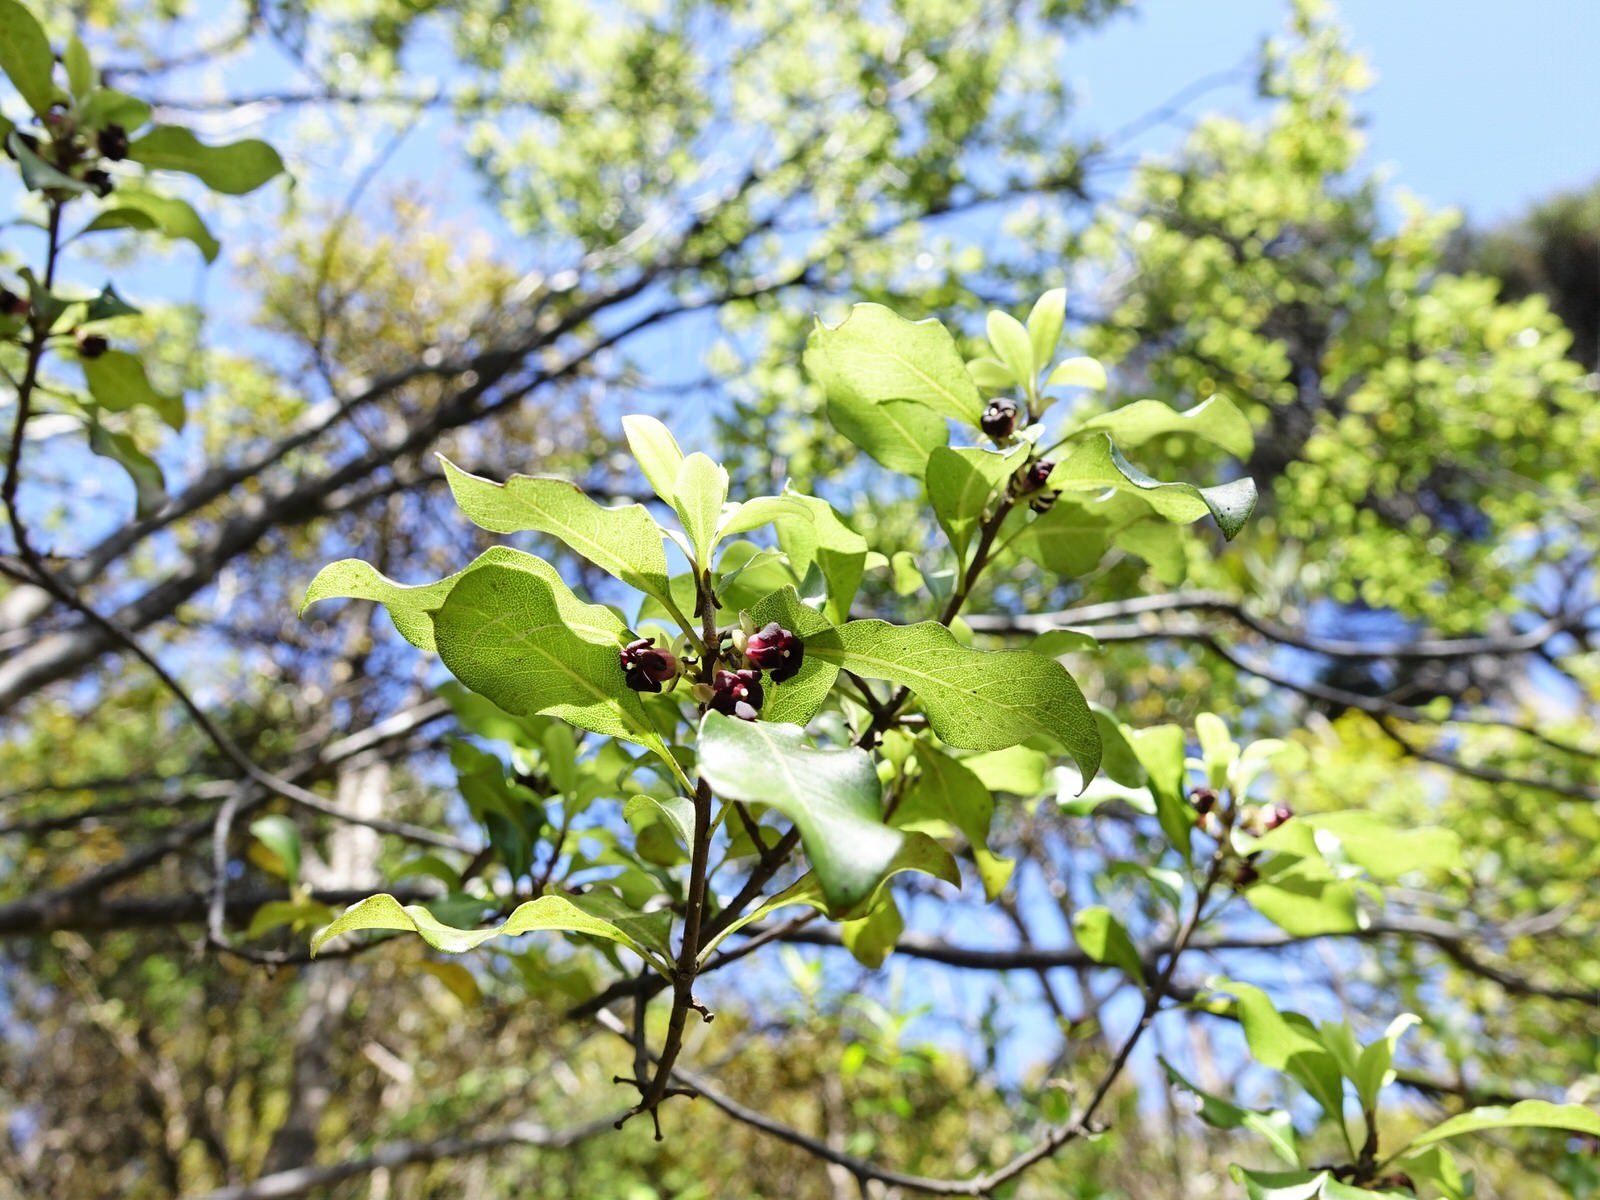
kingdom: Plantae
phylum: Tracheophyta
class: Magnoliopsida
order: Apiales
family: Pittosporaceae
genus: Pittosporum
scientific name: Pittosporum tenuifolium
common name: Kohuhu
